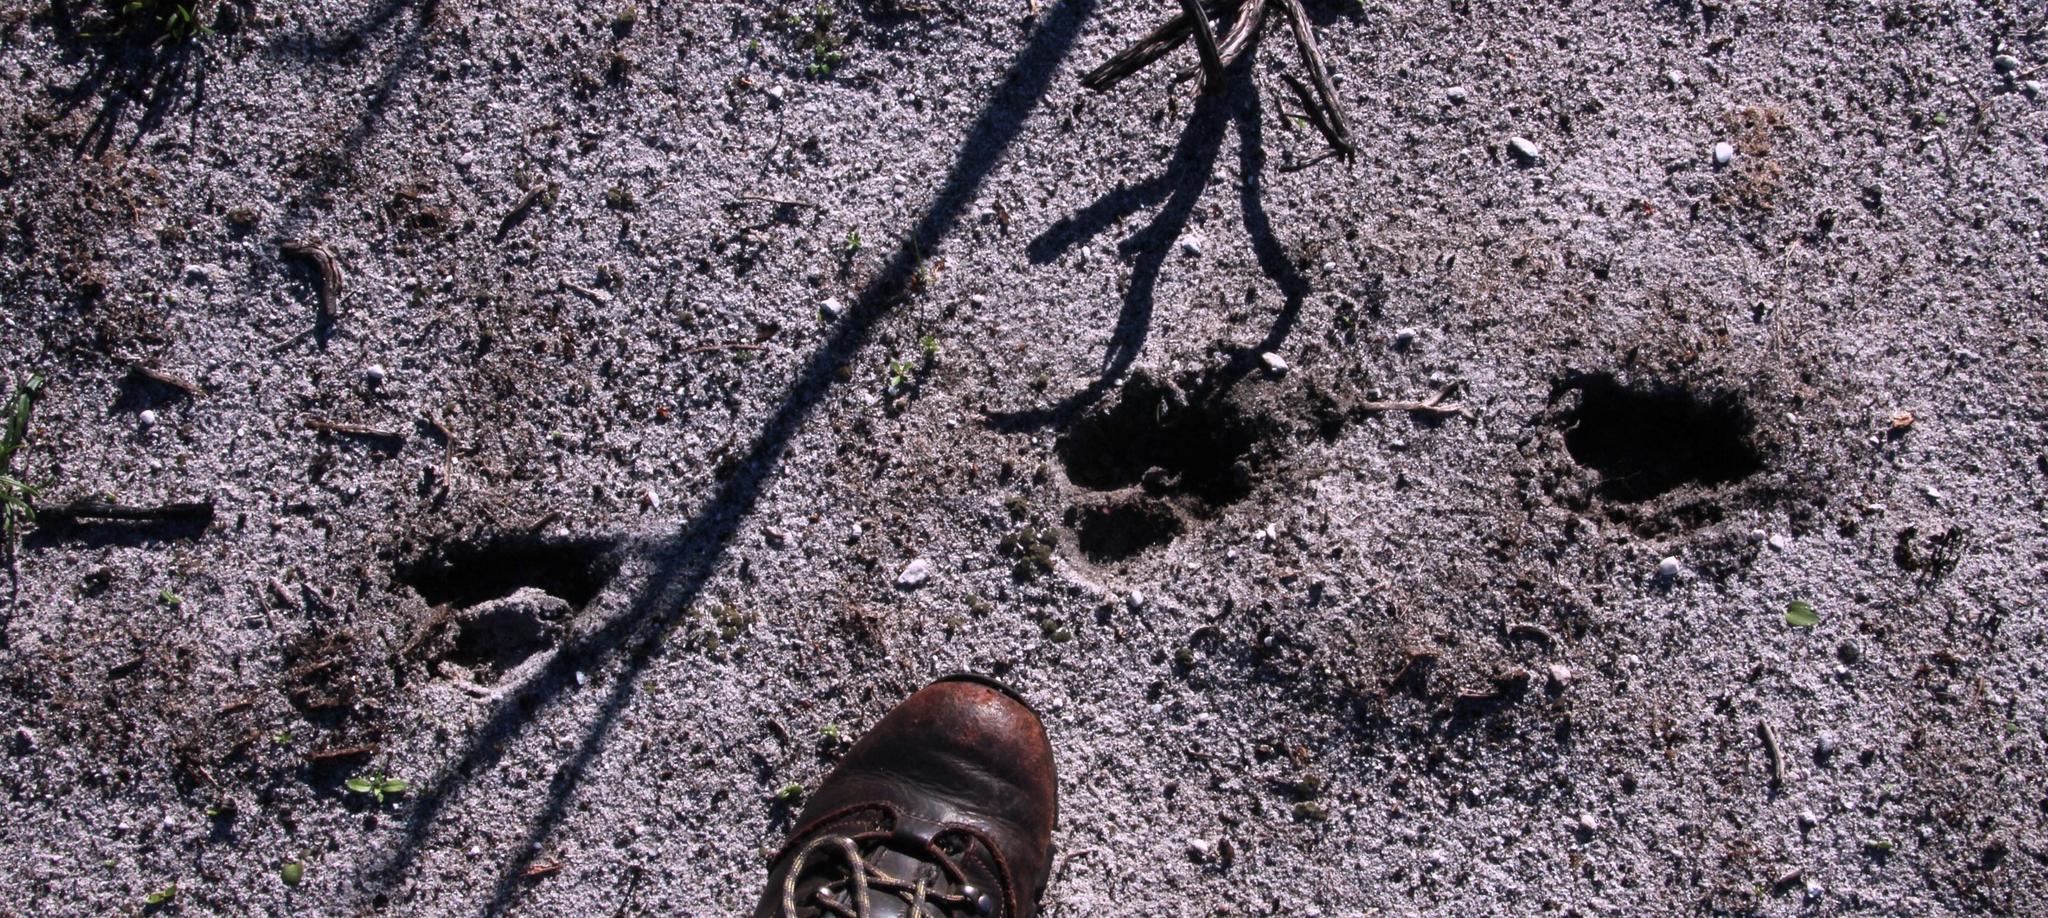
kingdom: Animalia
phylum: Chordata
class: Mammalia
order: Artiodactyla
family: Bovidae
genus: Damaliscus
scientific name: Damaliscus pygargus
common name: Bontebok
